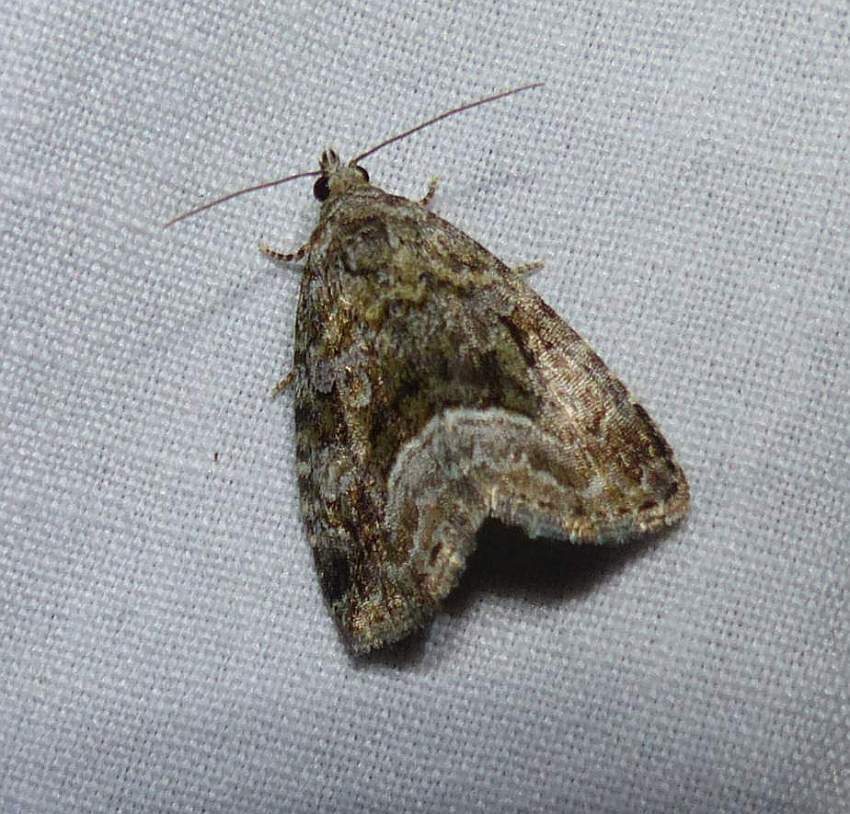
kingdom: Animalia
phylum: Arthropoda
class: Insecta
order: Lepidoptera
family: Noctuidae
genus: Protodeltote
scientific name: Protodeltote muscosula
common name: Large mossy glyph
